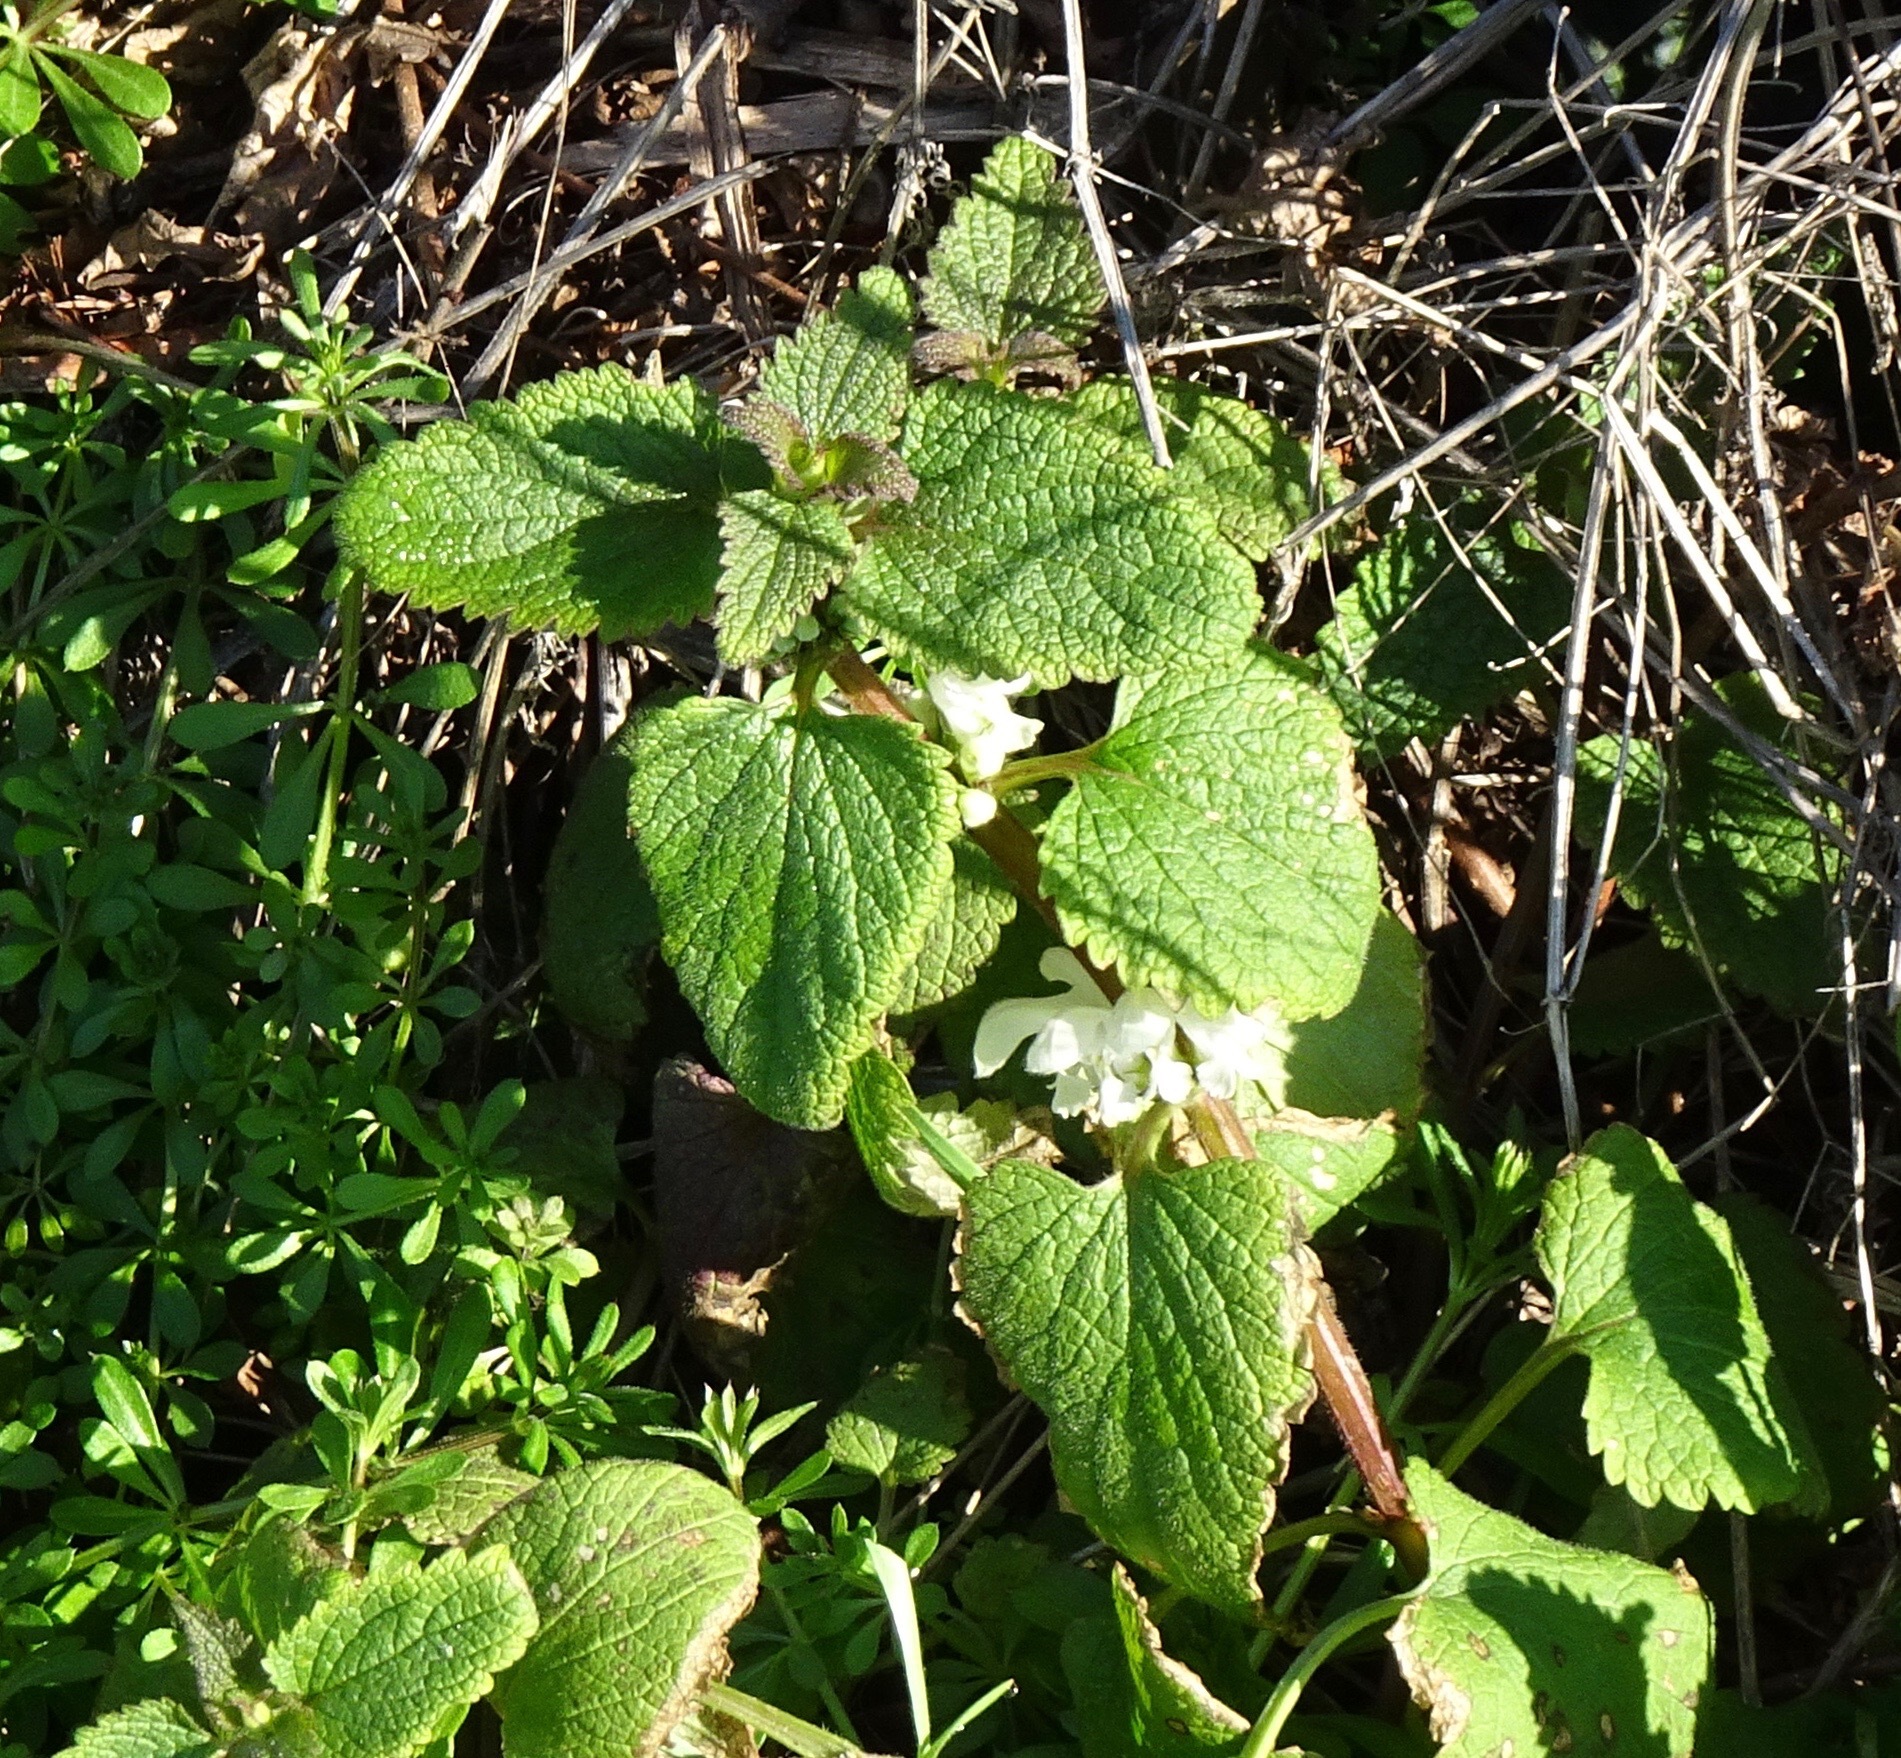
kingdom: Plantae
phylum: Tracheophyta
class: Magnoliopsida
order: Lamiales
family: Lamiaceae
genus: Lamium
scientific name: Lamium album
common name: White dead-nettle
